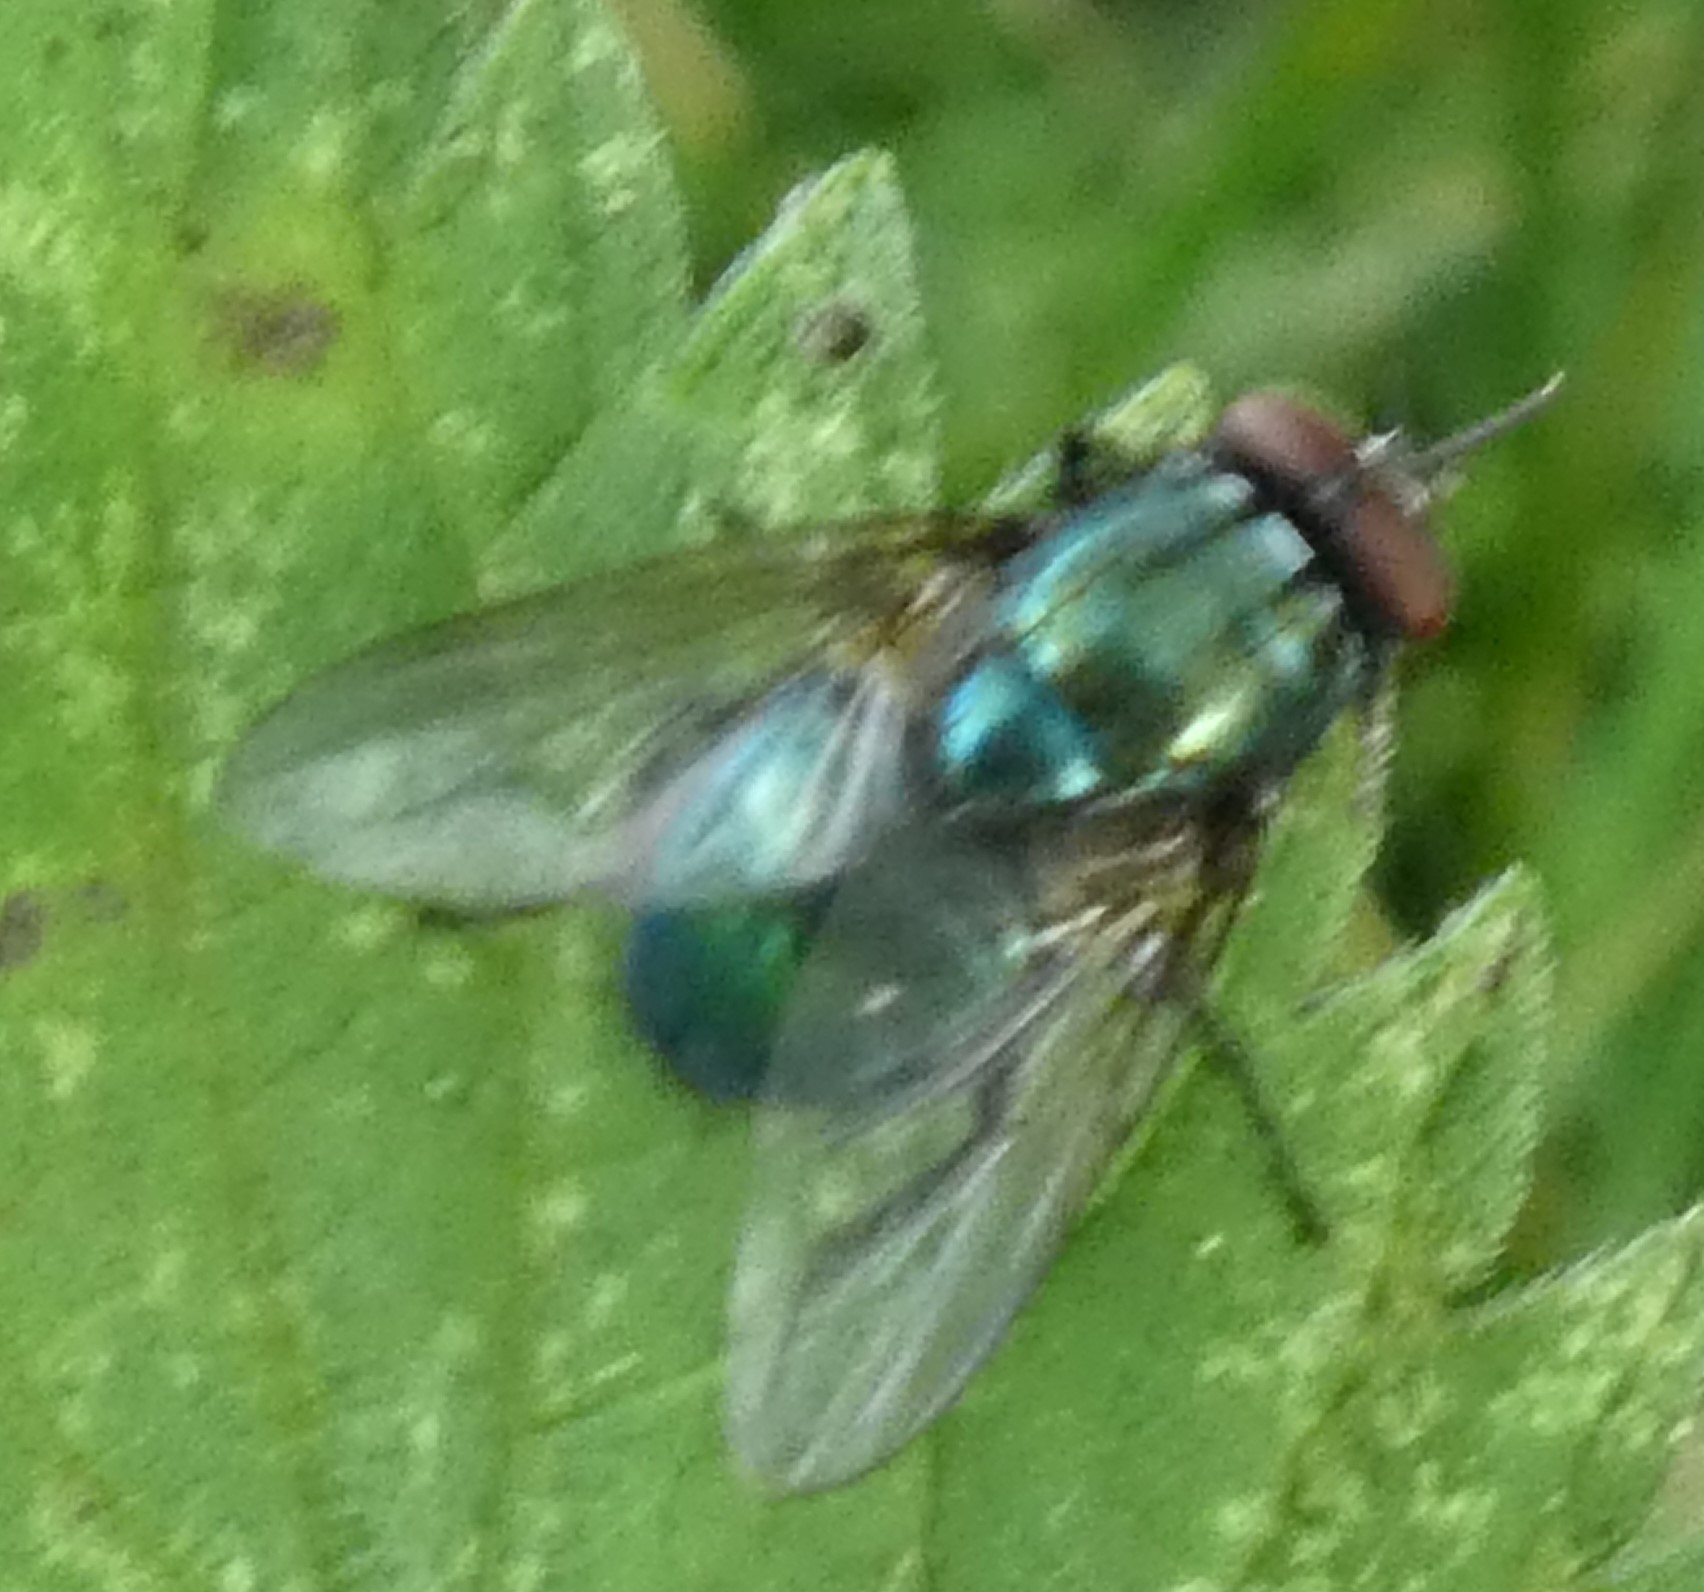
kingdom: Animalia
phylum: Arthropoda
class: Insecta
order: Diptera
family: Muscidae
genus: Dasyphora
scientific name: Dasyphora cyanella
